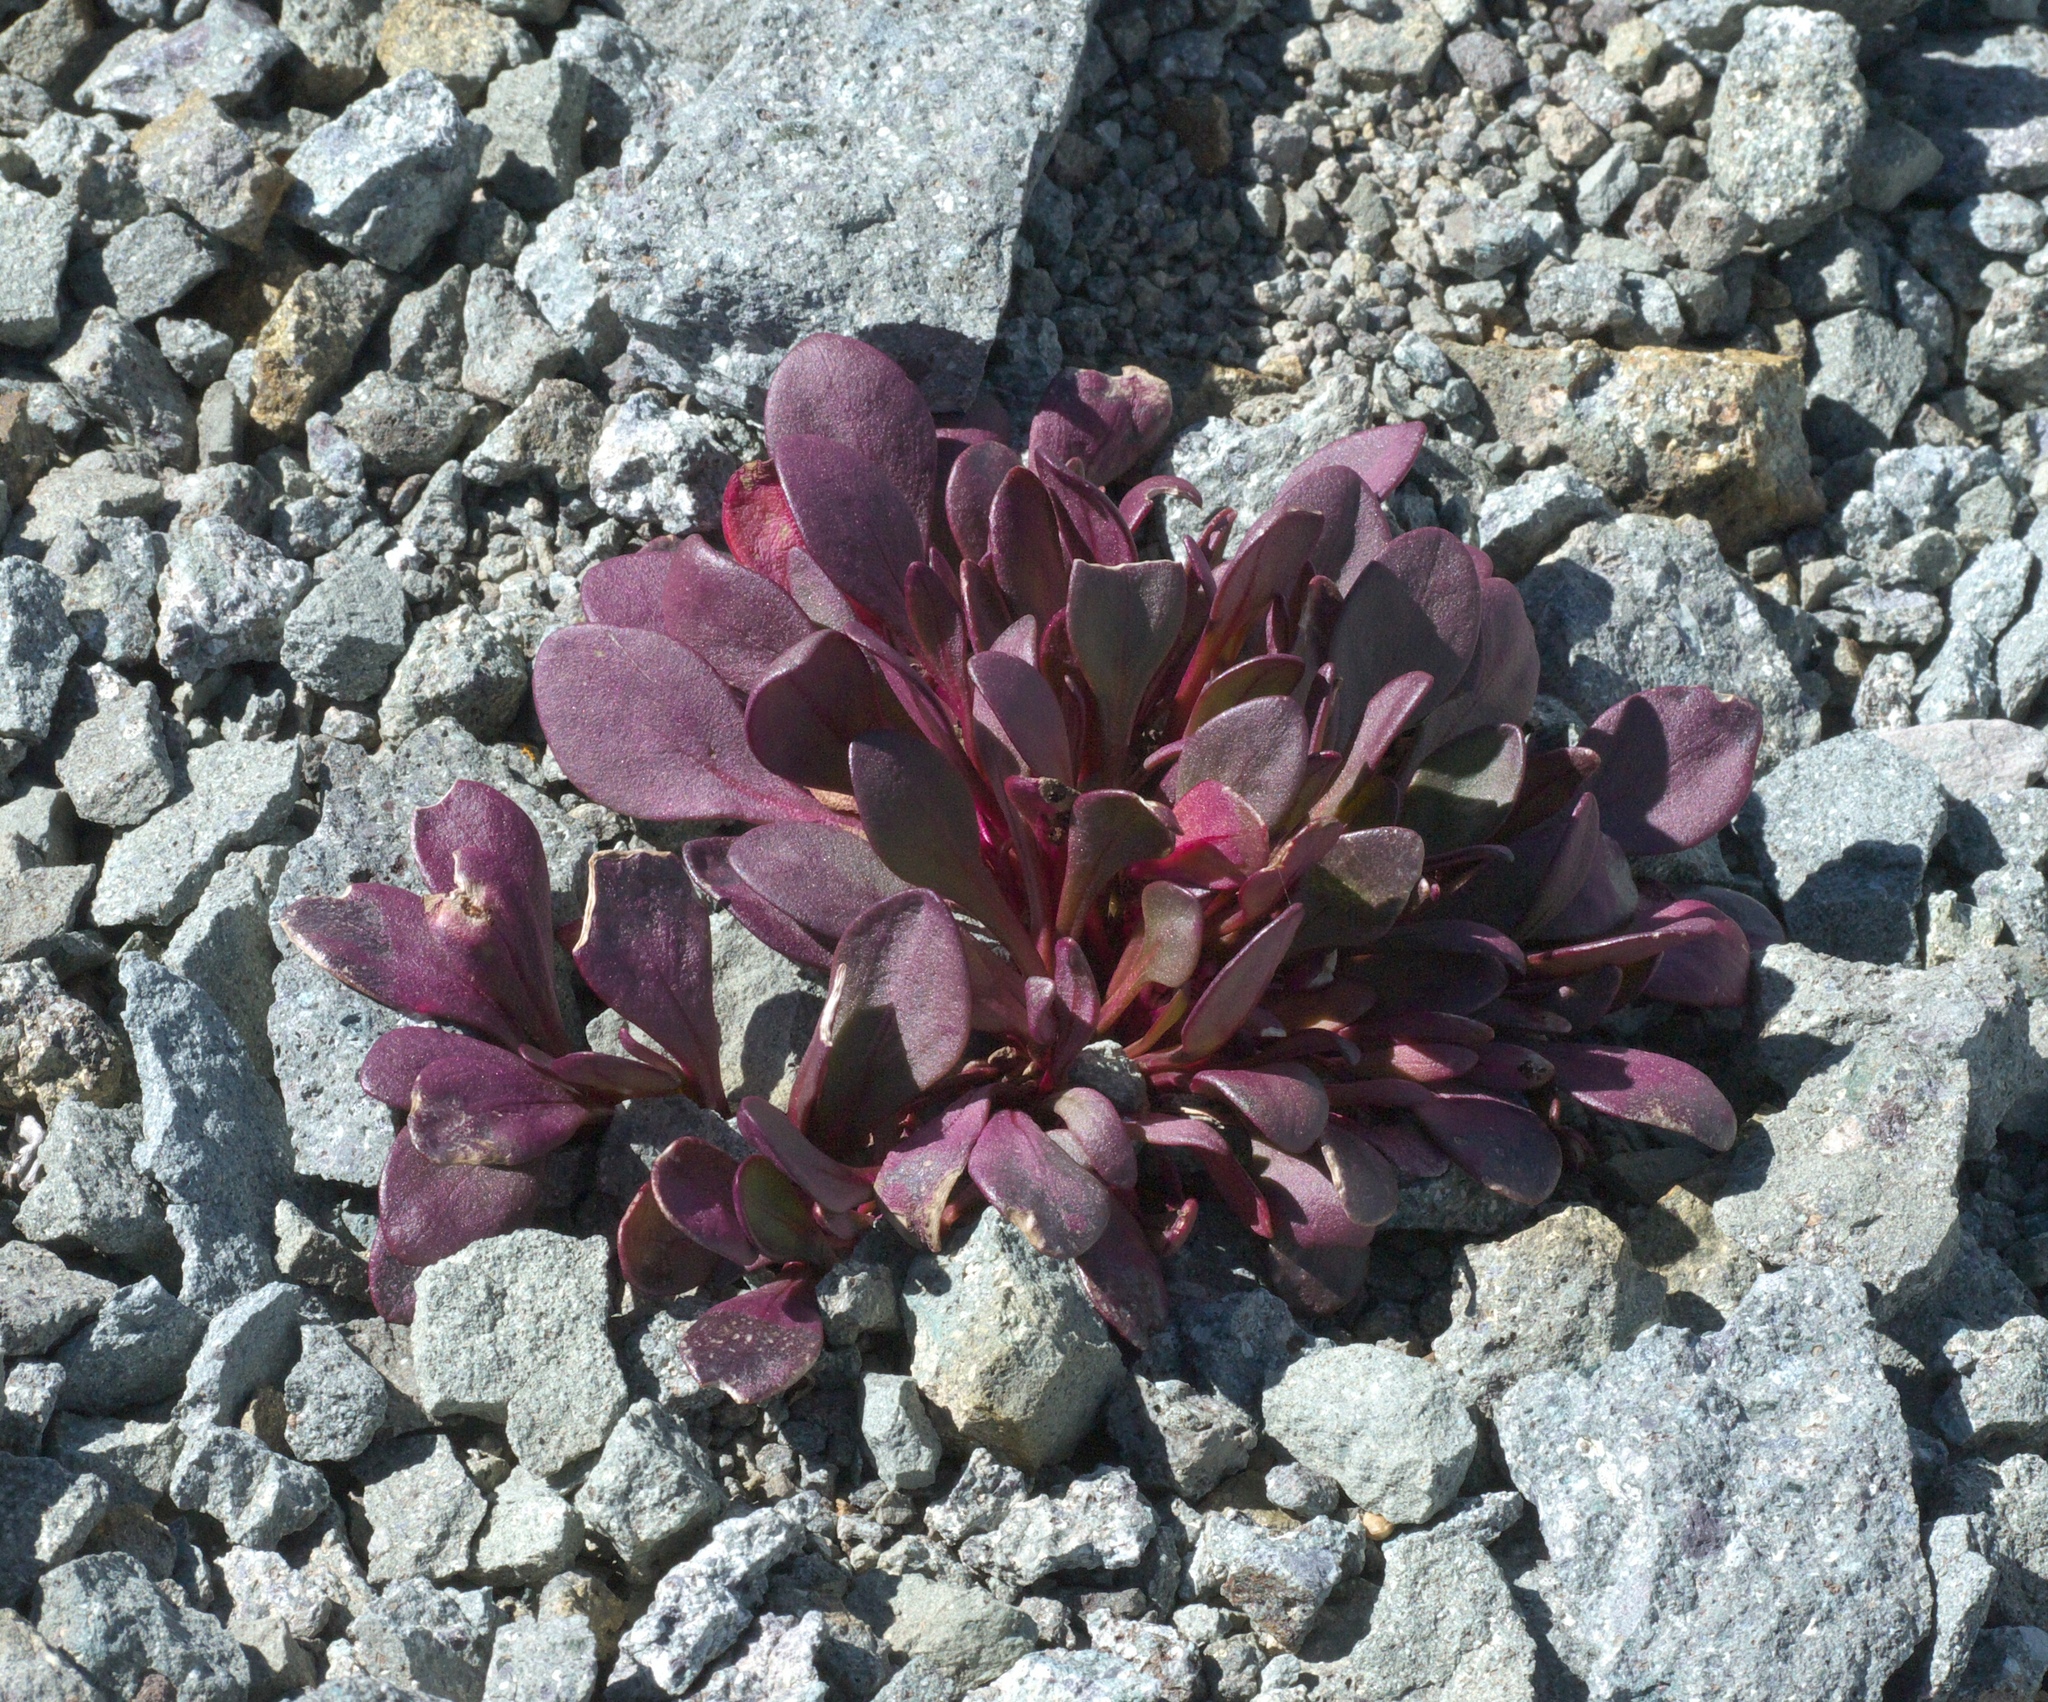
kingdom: Plantae
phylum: Tracheophyta
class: Magnoliopsida
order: Caryophyllales
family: Montiaceae
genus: Claytonia
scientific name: Claytonia megarhiza
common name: Alpine spring beauty
